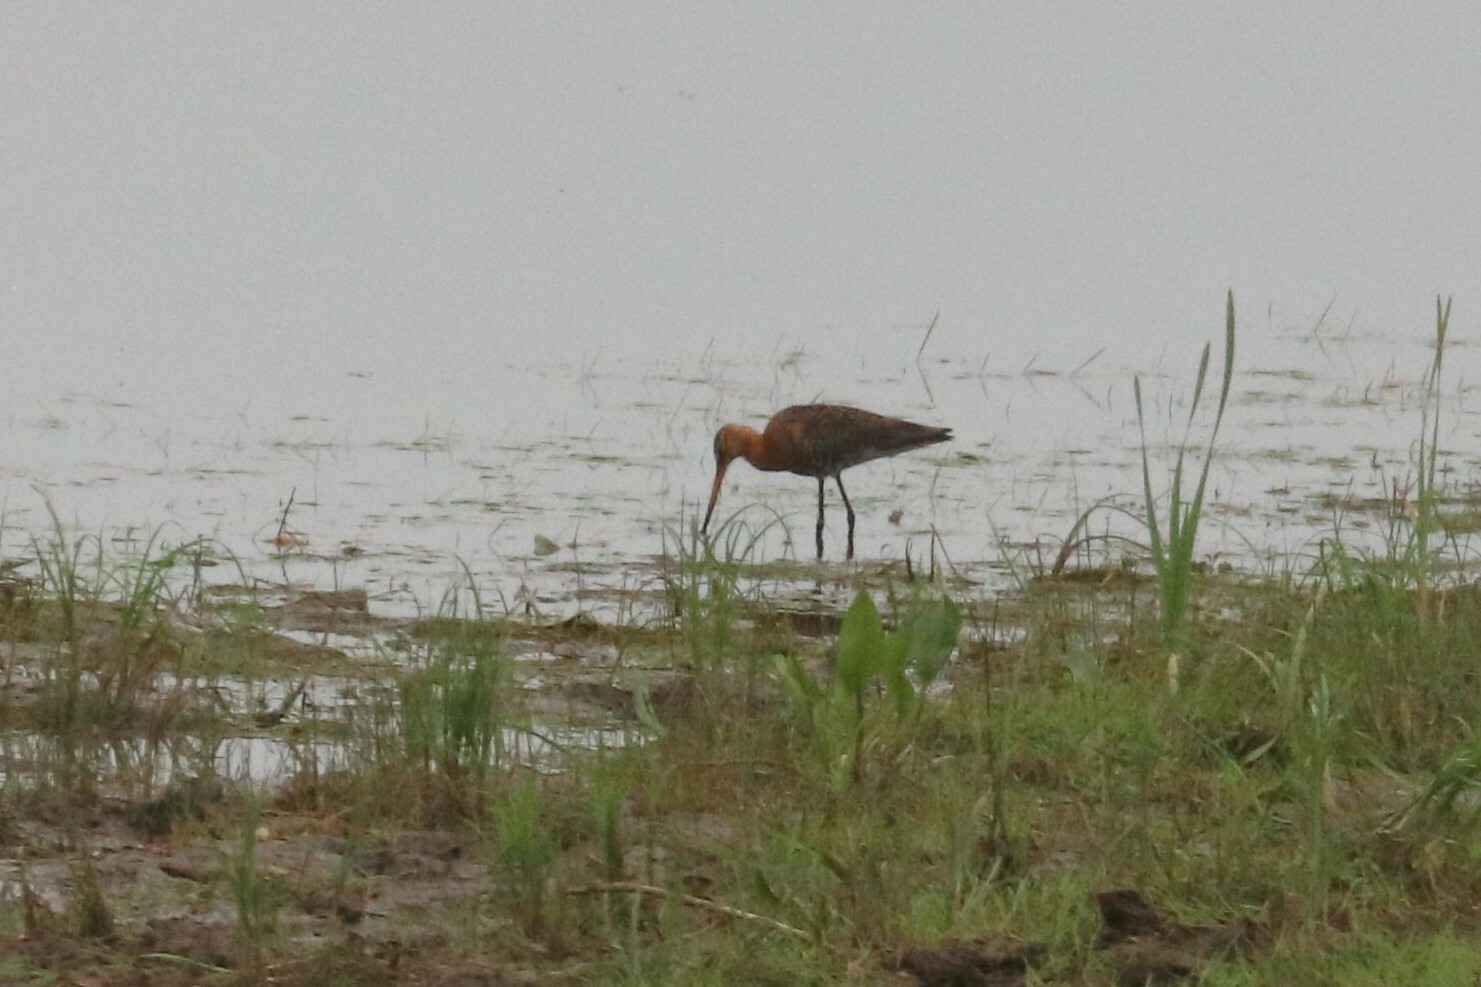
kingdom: Animalia
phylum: Chordata
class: Aves
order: Charadriiformes
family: Scolopacidae
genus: Limosa
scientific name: Limosa limosa
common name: Black-tailed godwit
